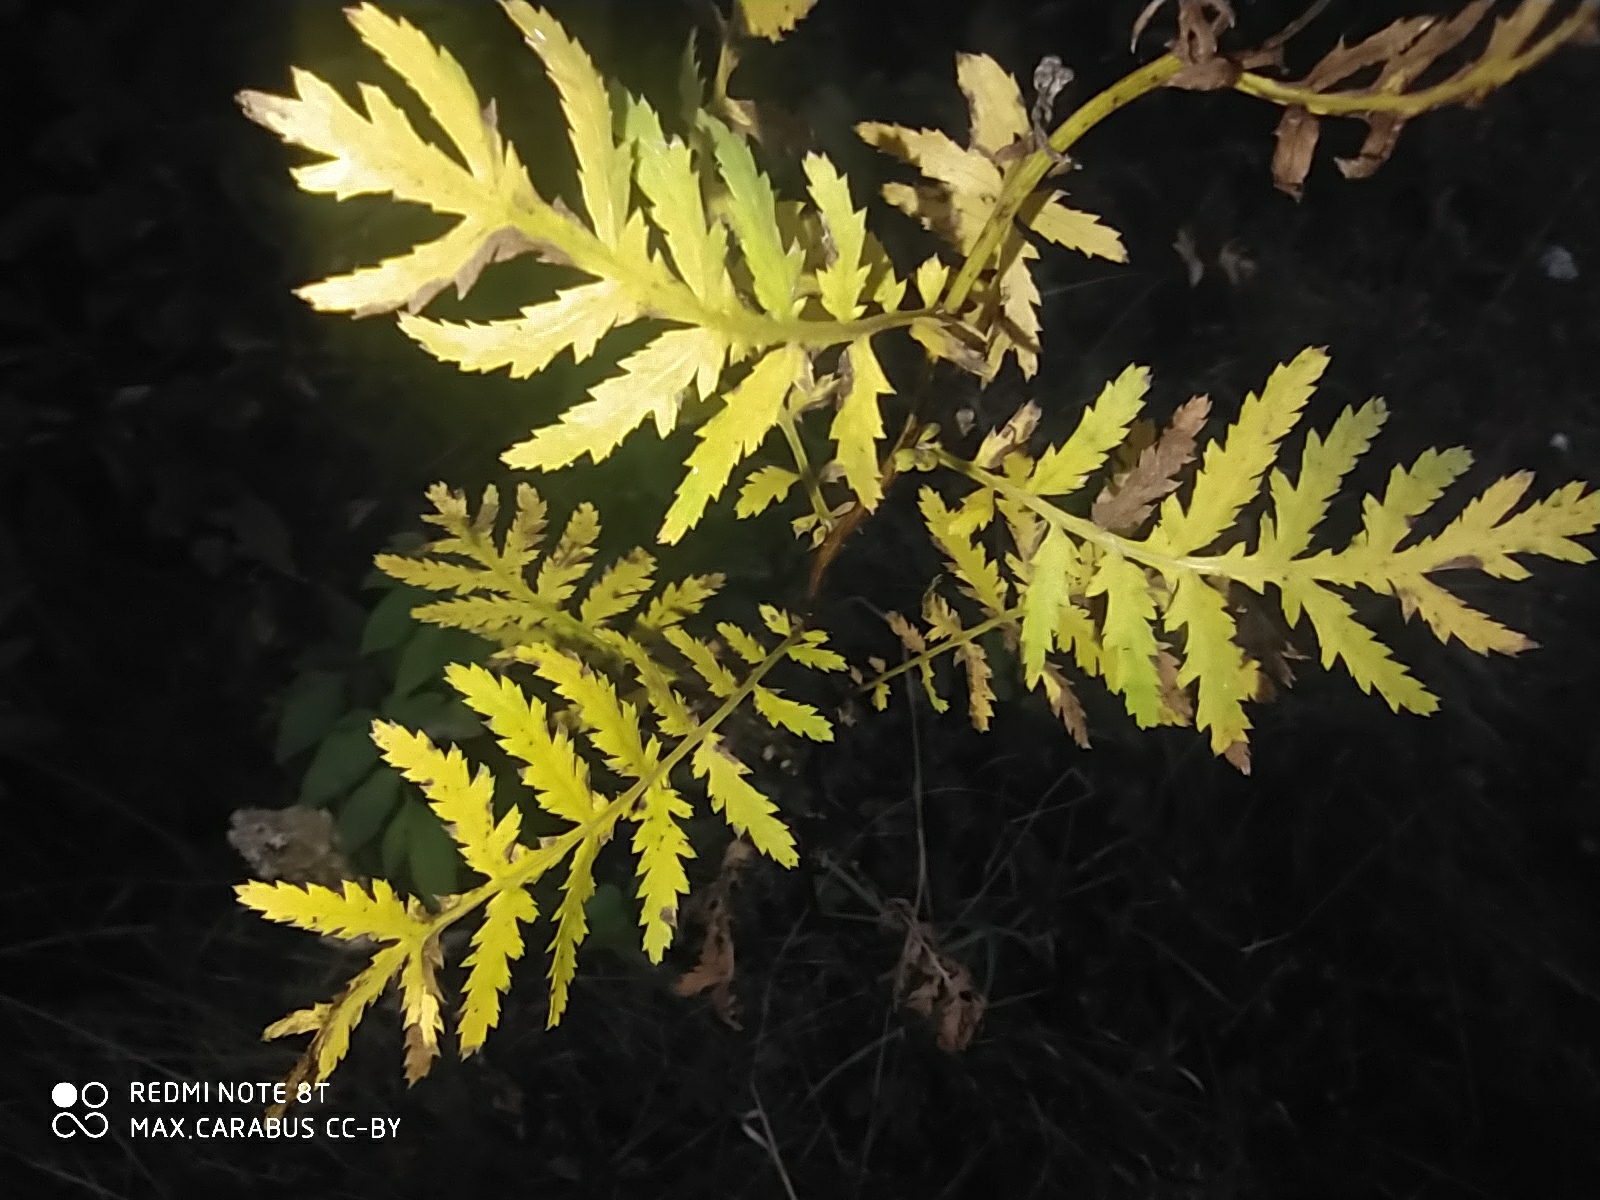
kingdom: Plantae
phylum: Tracheophyta
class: Magnoliopsida
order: Asterales
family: Asteraceae
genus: Tanacetum
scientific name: Tanacetum vulgare
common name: Common tansy
